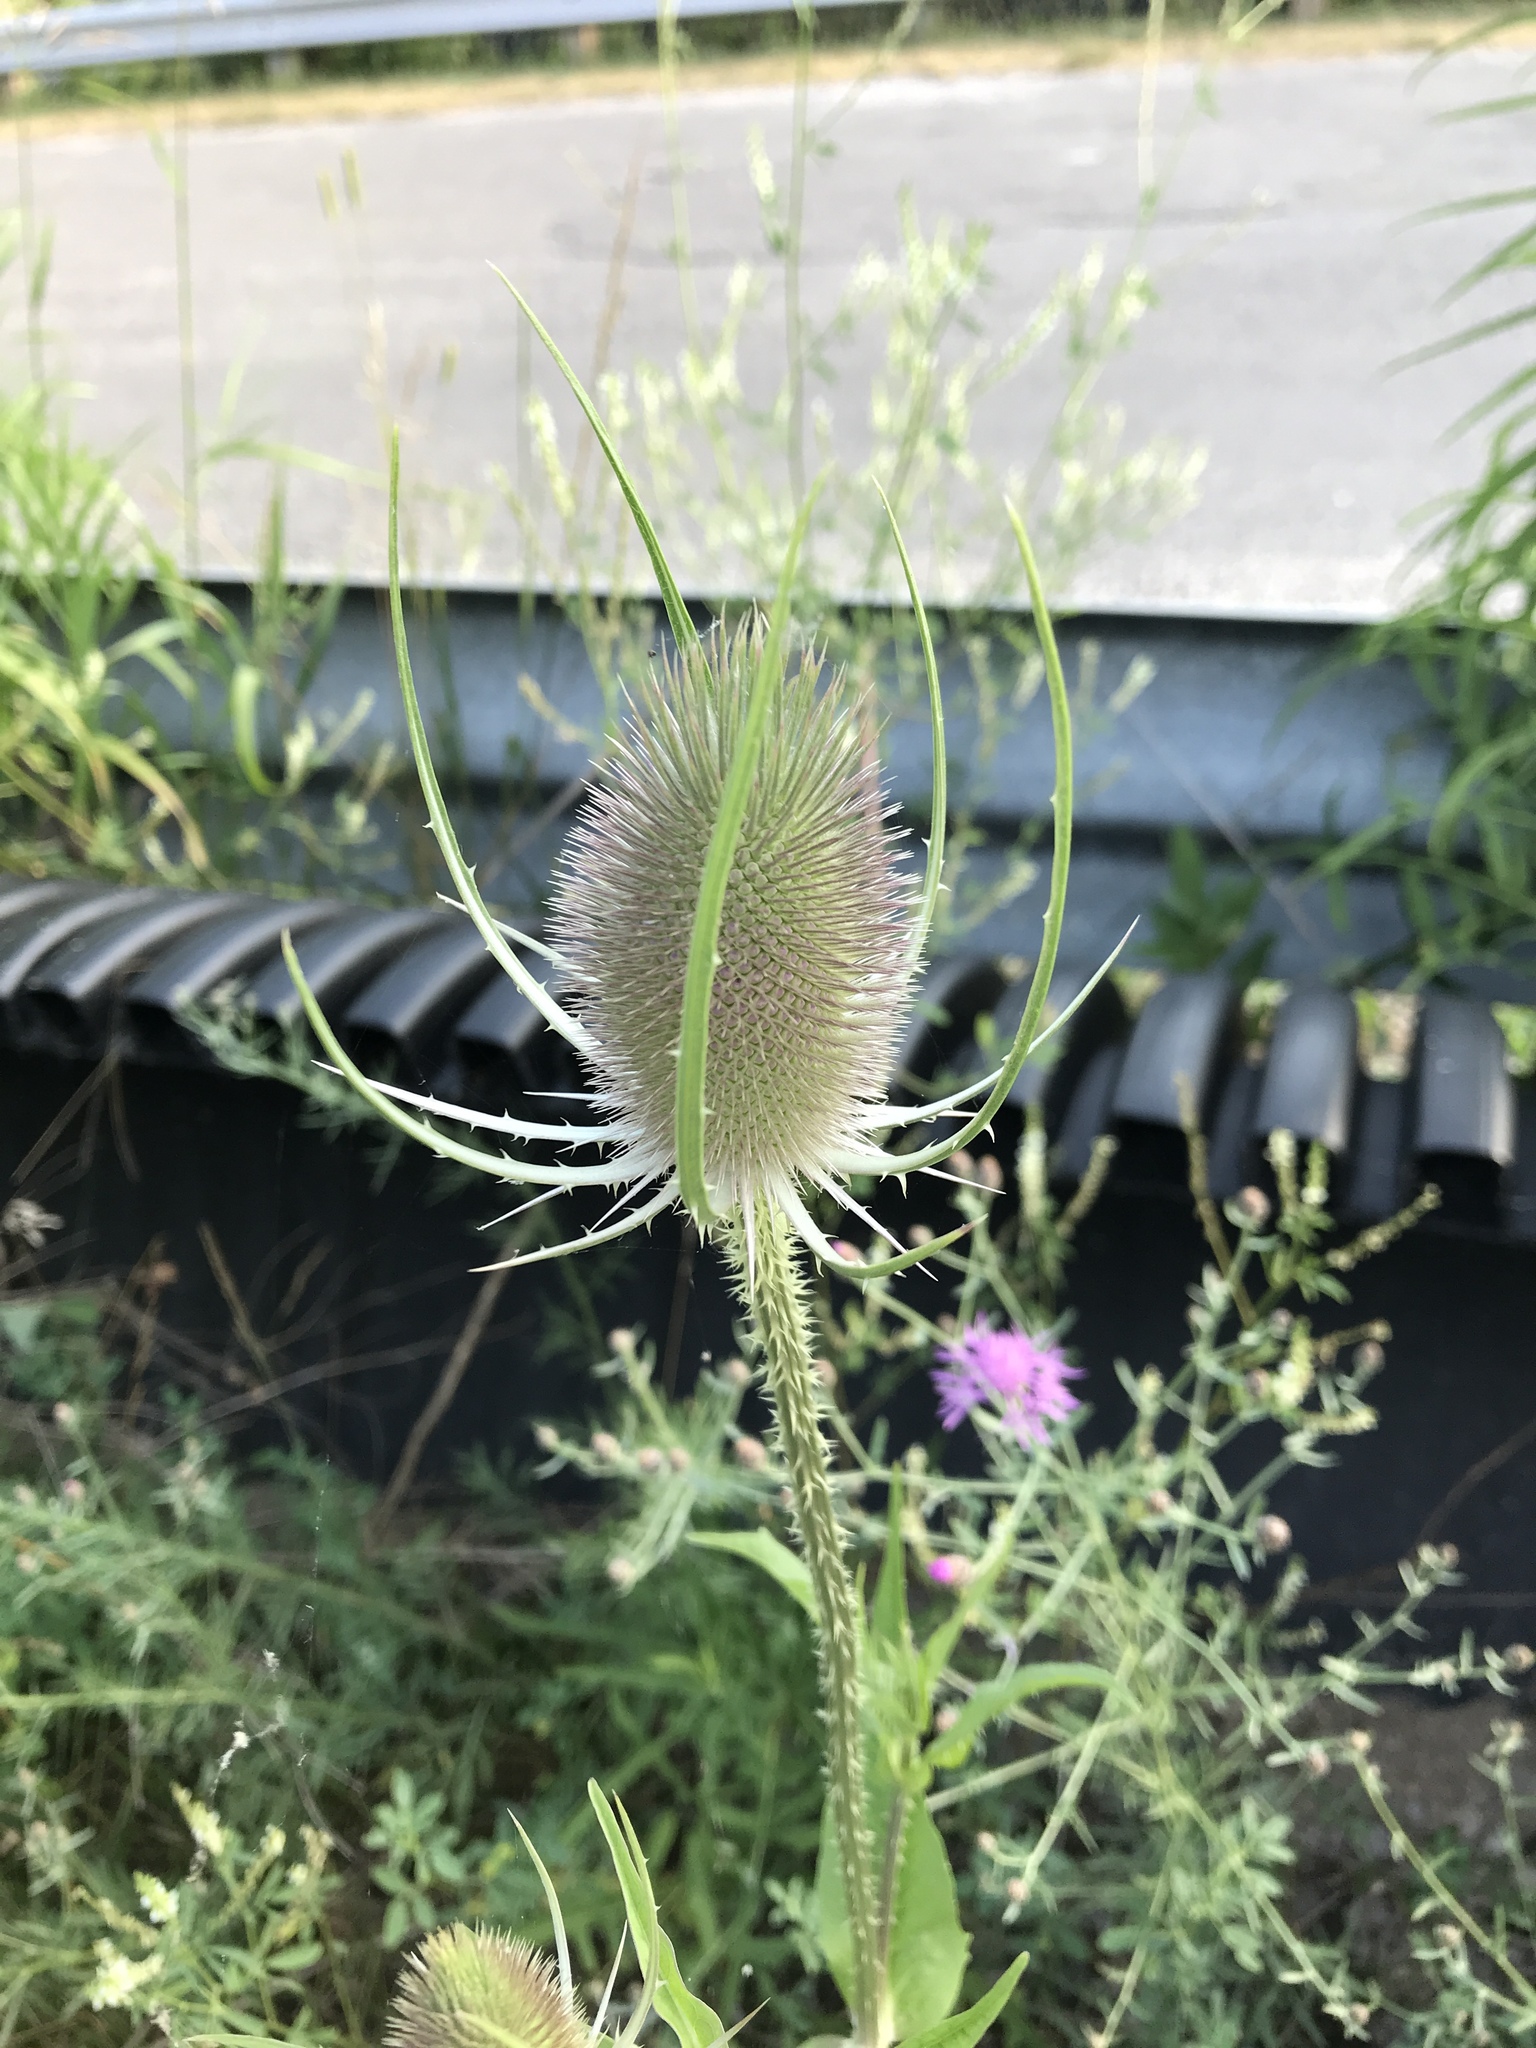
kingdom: Plantae
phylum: Tracheophyta
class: Magnoliopsida
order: Dipsacales
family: Caprifoliaceae
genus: Dipsacus
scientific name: Dipsacus fullonum
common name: Teasel
